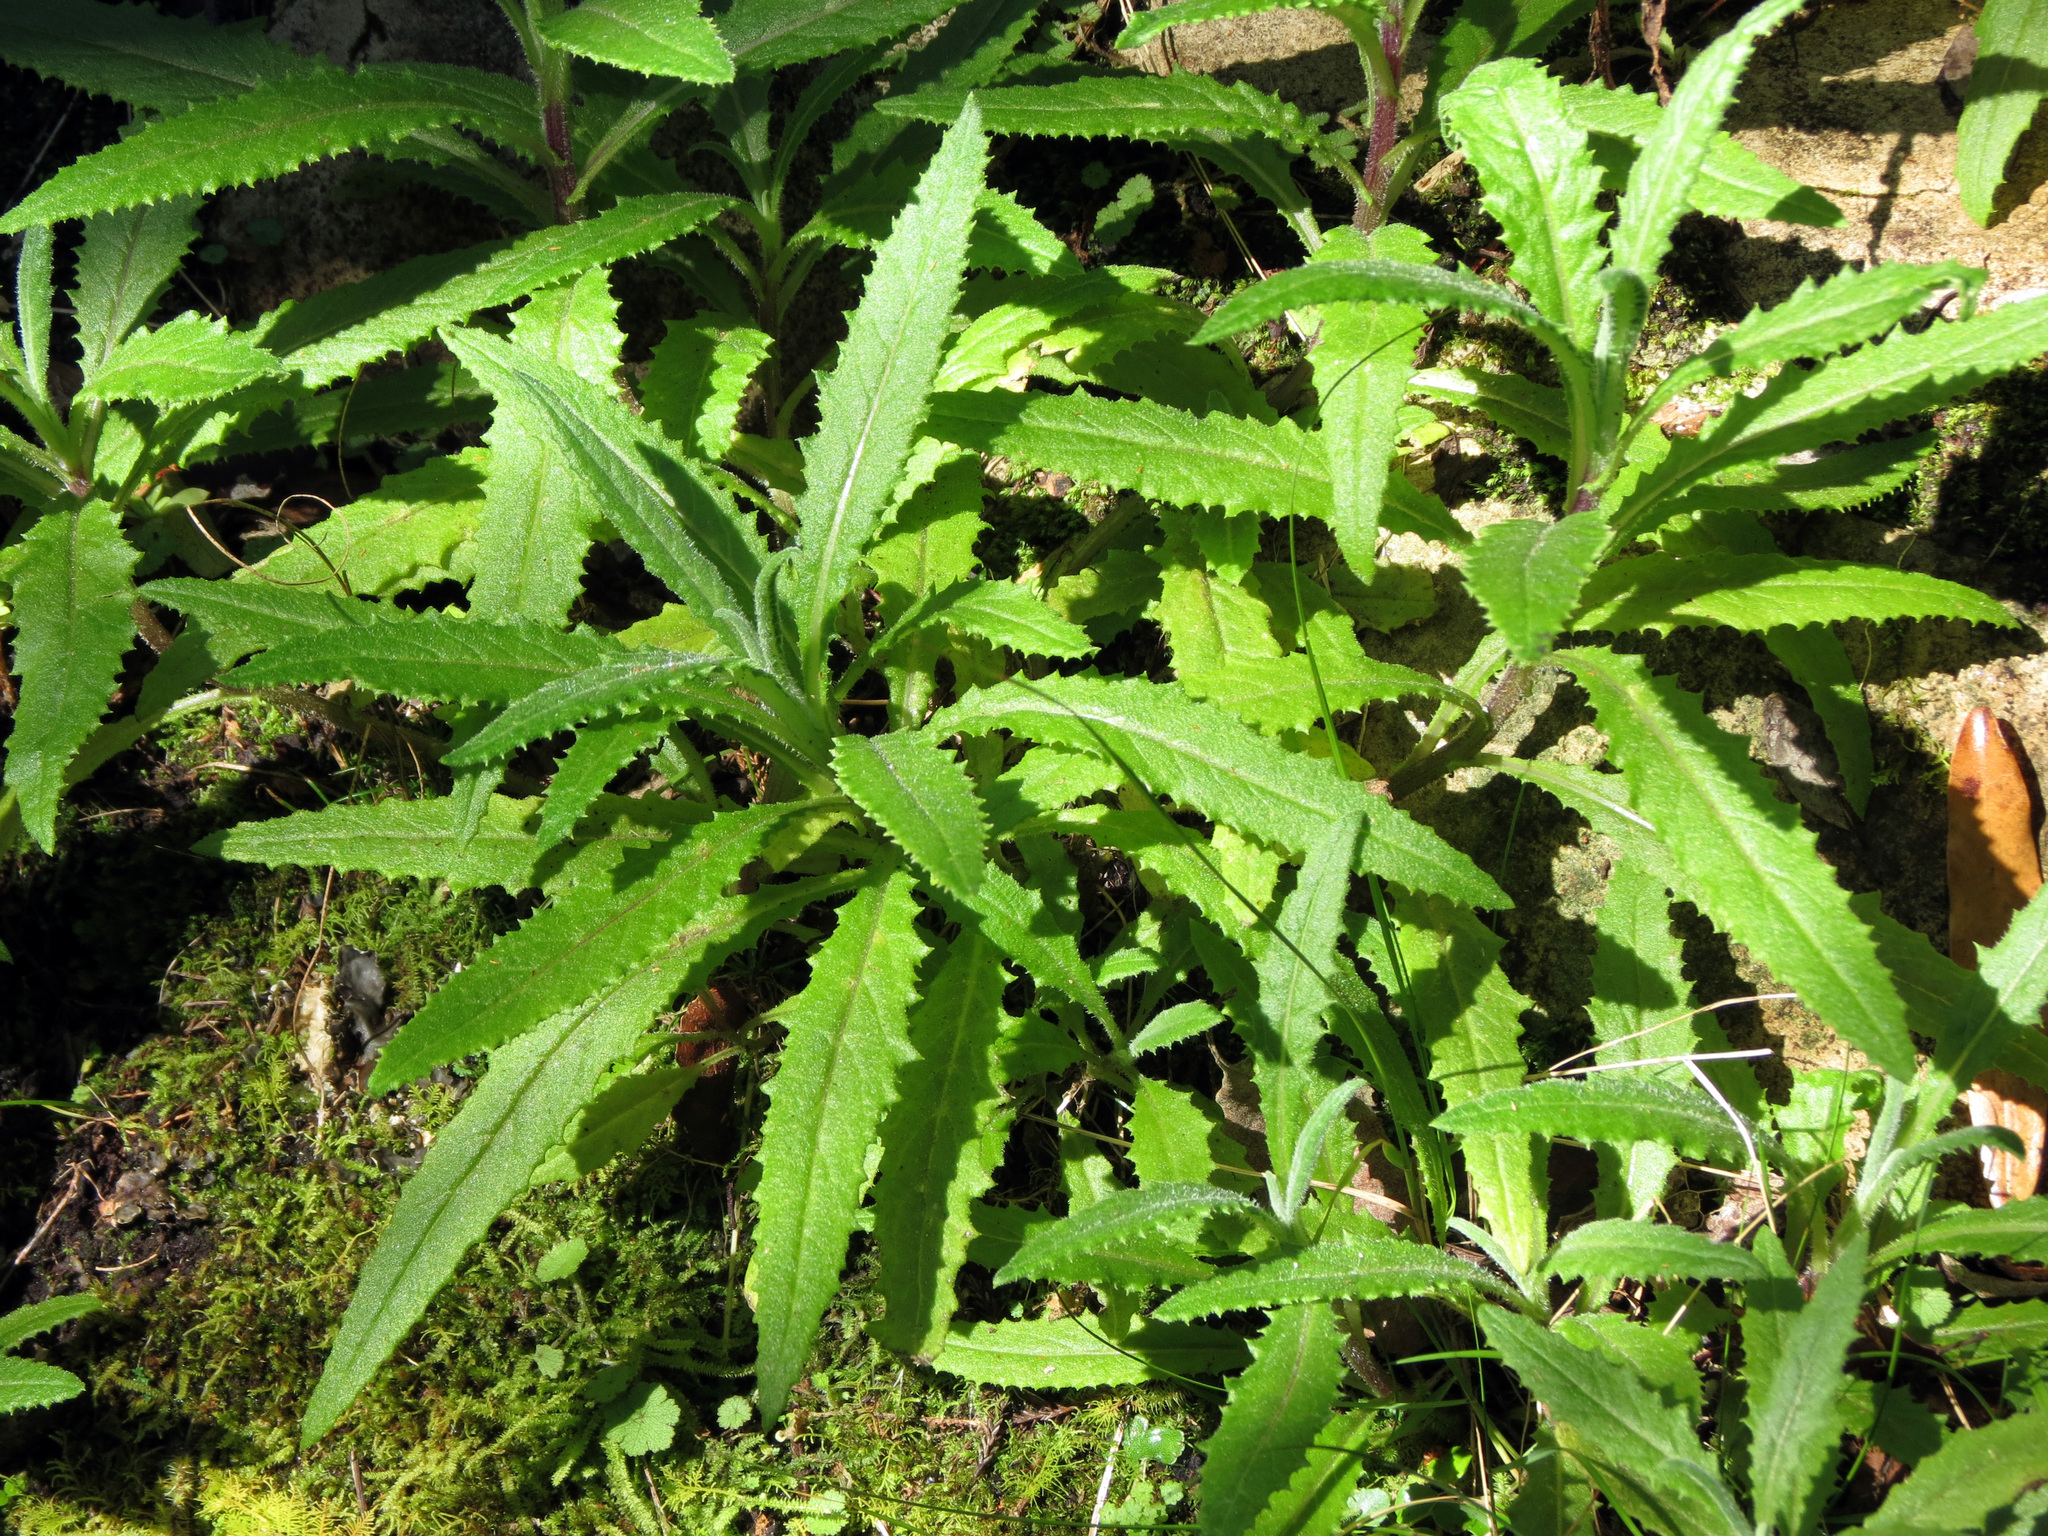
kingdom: Plantae
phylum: Tracheophyta
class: Magnoliopsida
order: Asterales
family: Asteraceae
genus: Senecio
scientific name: Senecio minimus
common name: Toothed fireweed
